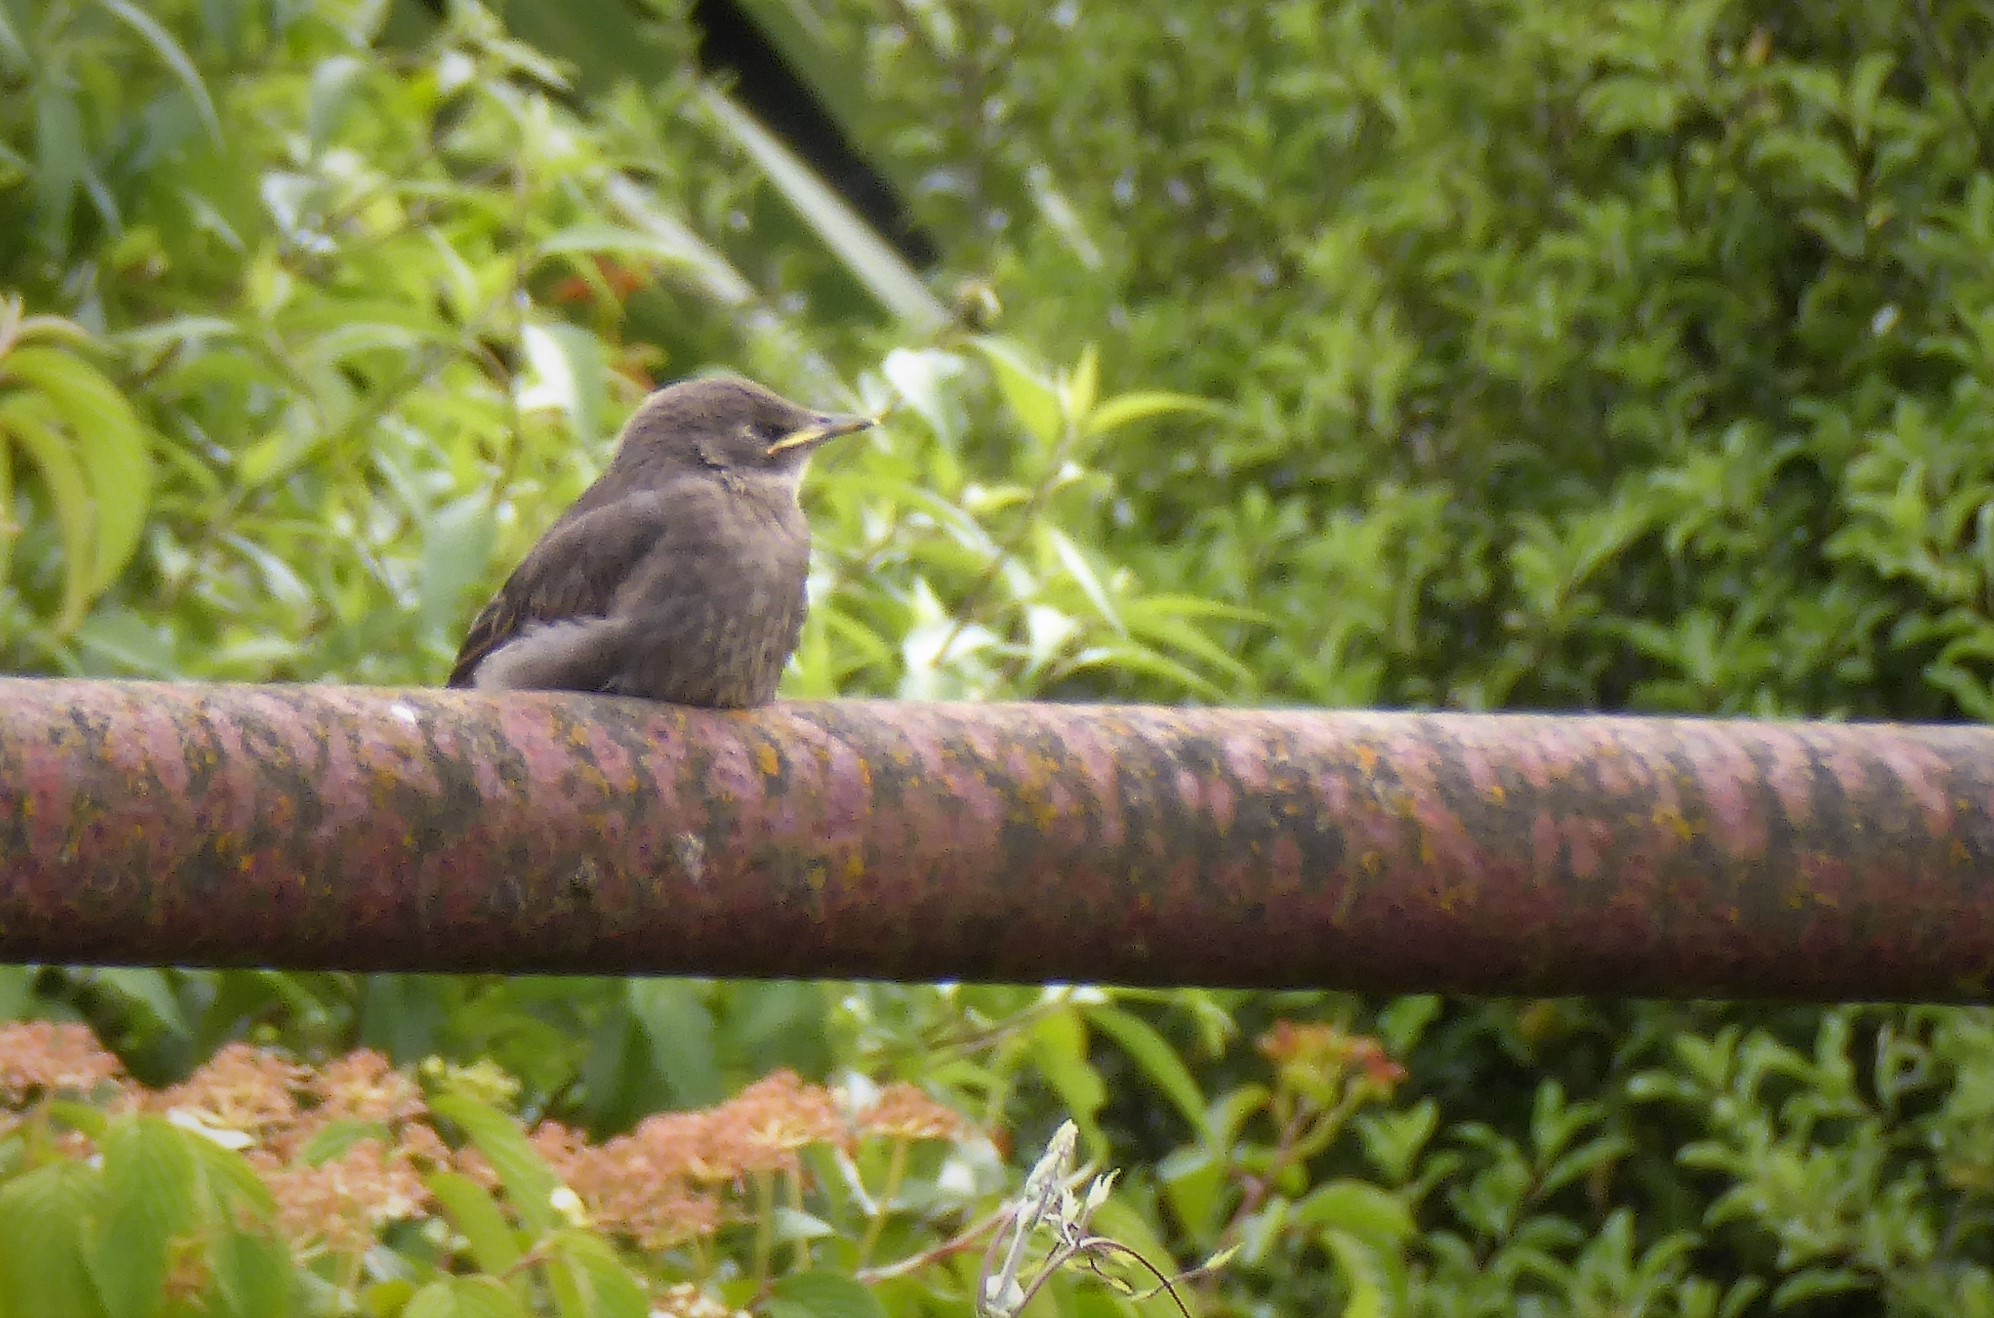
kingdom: Animalia
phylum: Chordata
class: Aves
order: Passeriformes
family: Sturnidae
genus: Sturnus
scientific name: Sturnus vulgaris
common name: Common starling
